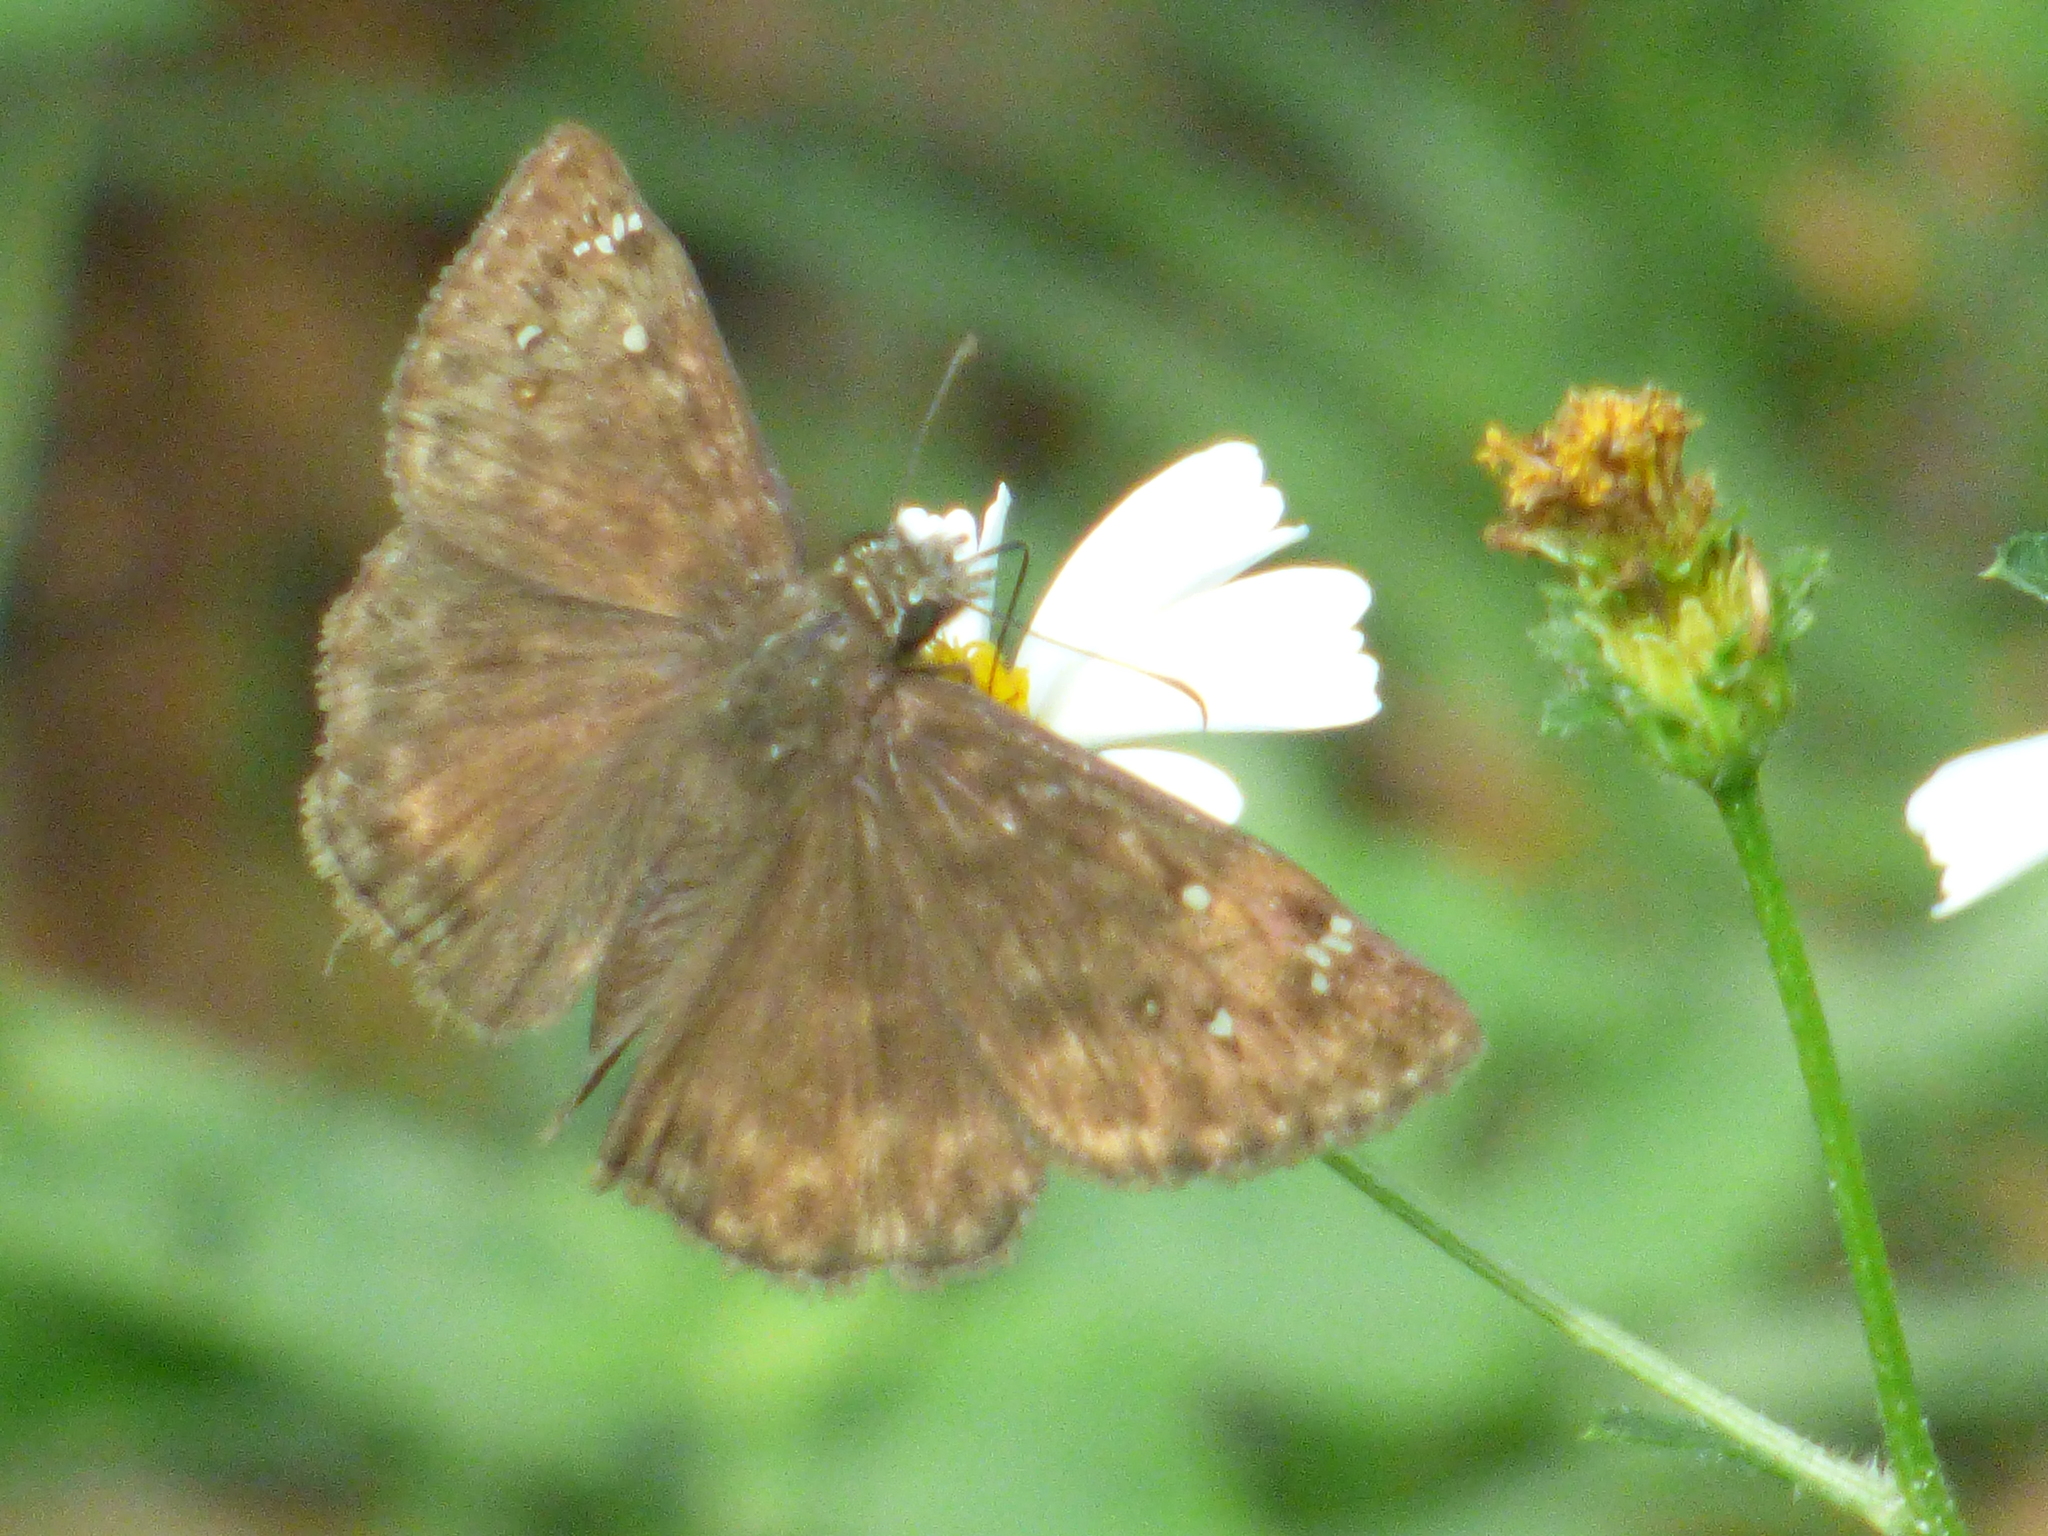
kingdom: Animalia
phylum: Arthropoda
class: Insecta
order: Lepidoptera
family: Hesperiidae
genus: Erynnis
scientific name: Erynnis horatius
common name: Horace's duskywing
